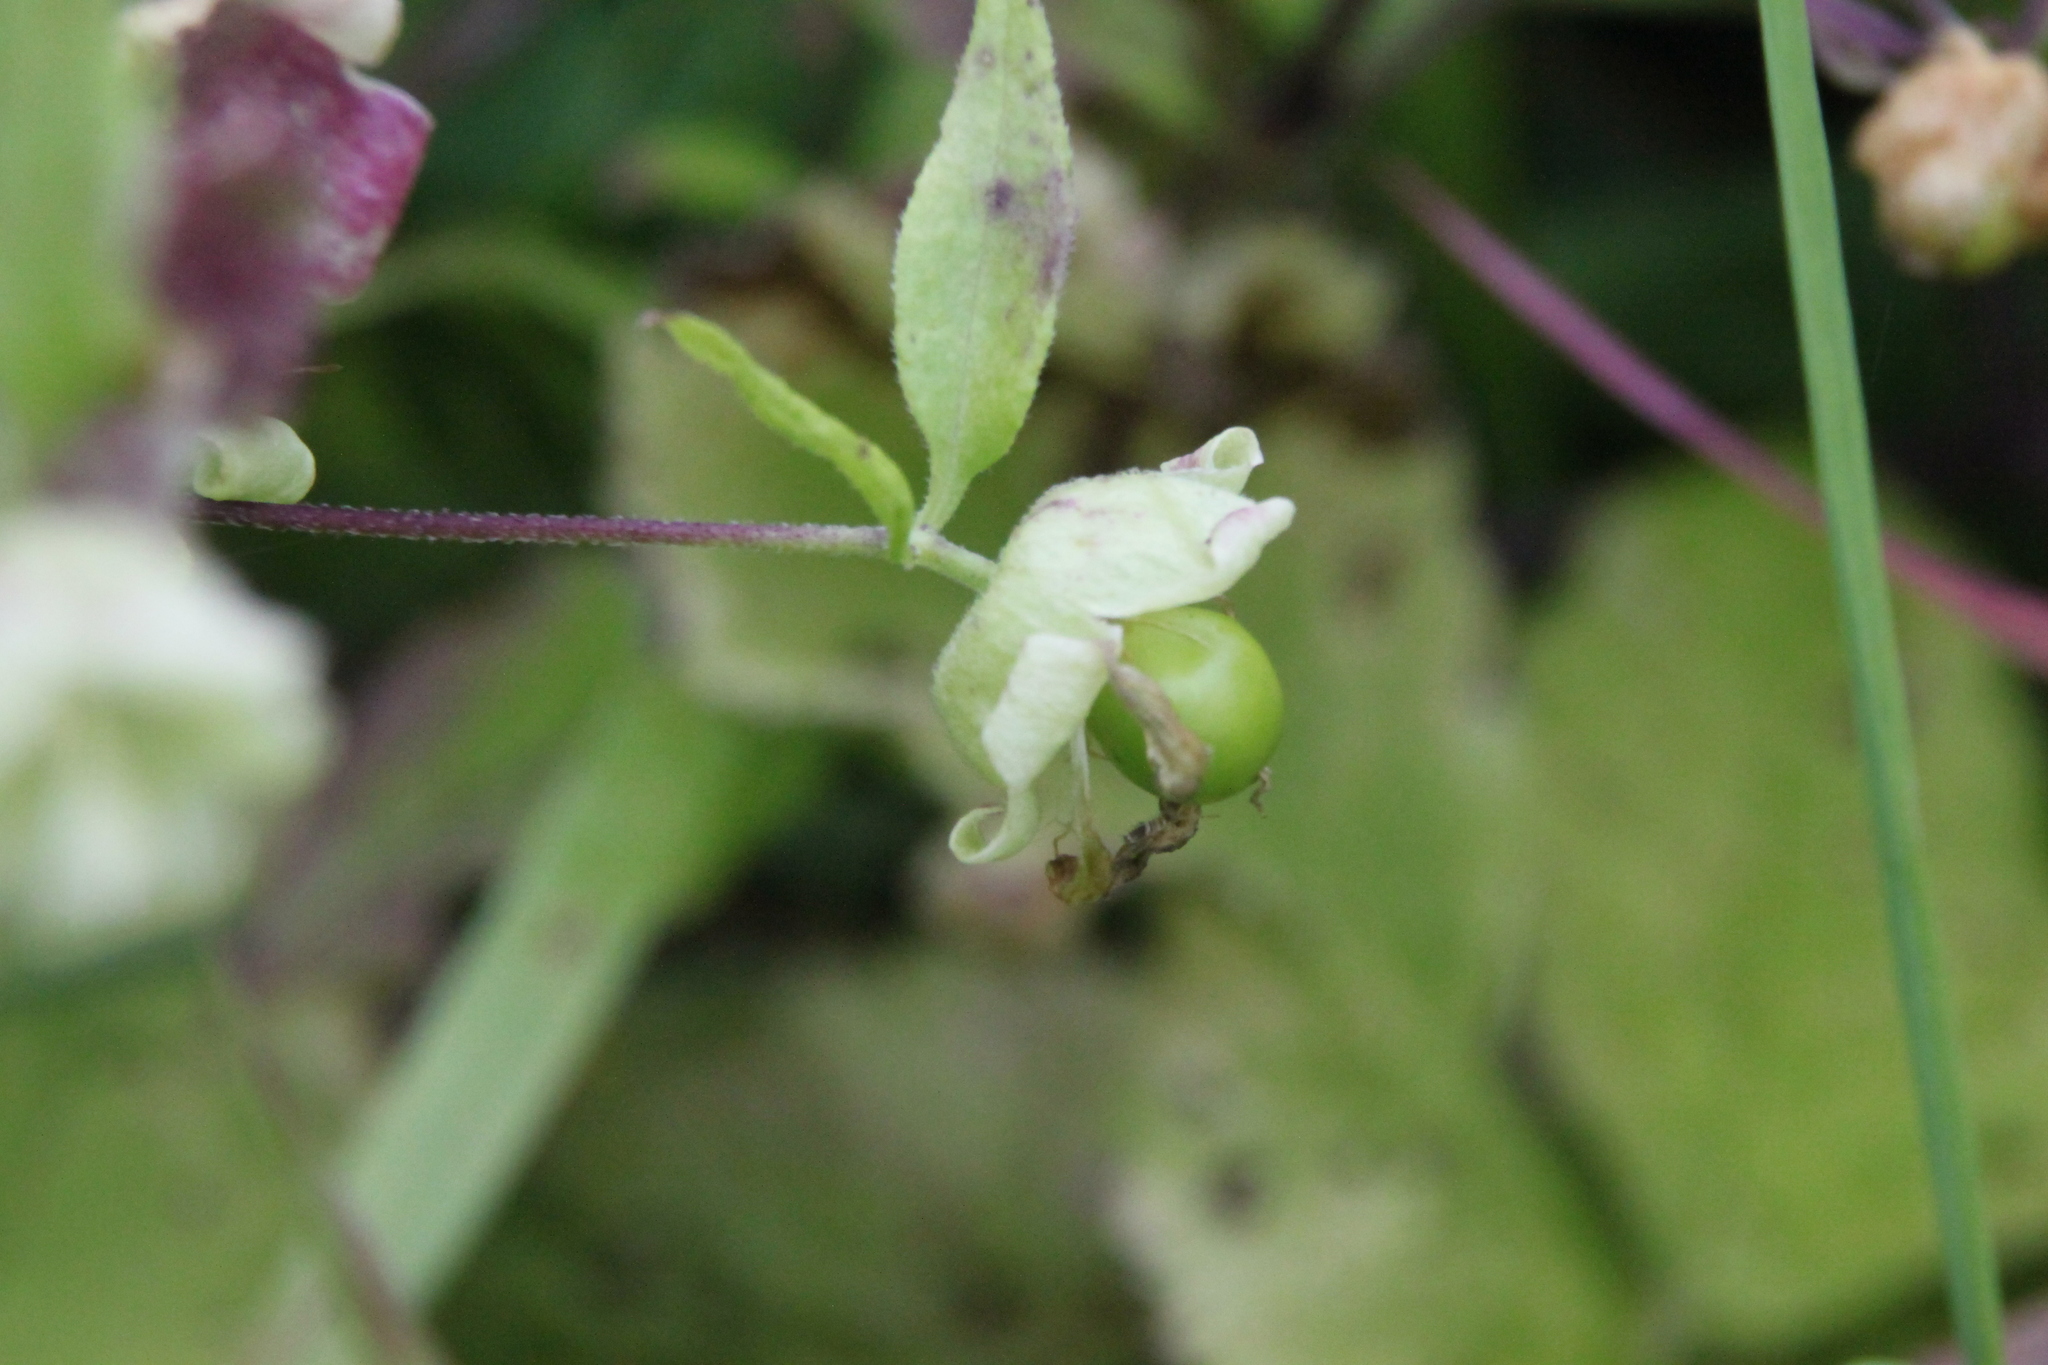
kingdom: Plantae
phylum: Tracheophyta
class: Magnoliopsida
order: Caryophyllales
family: Caryophyllaceae
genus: Silene
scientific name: Silene baccifera
